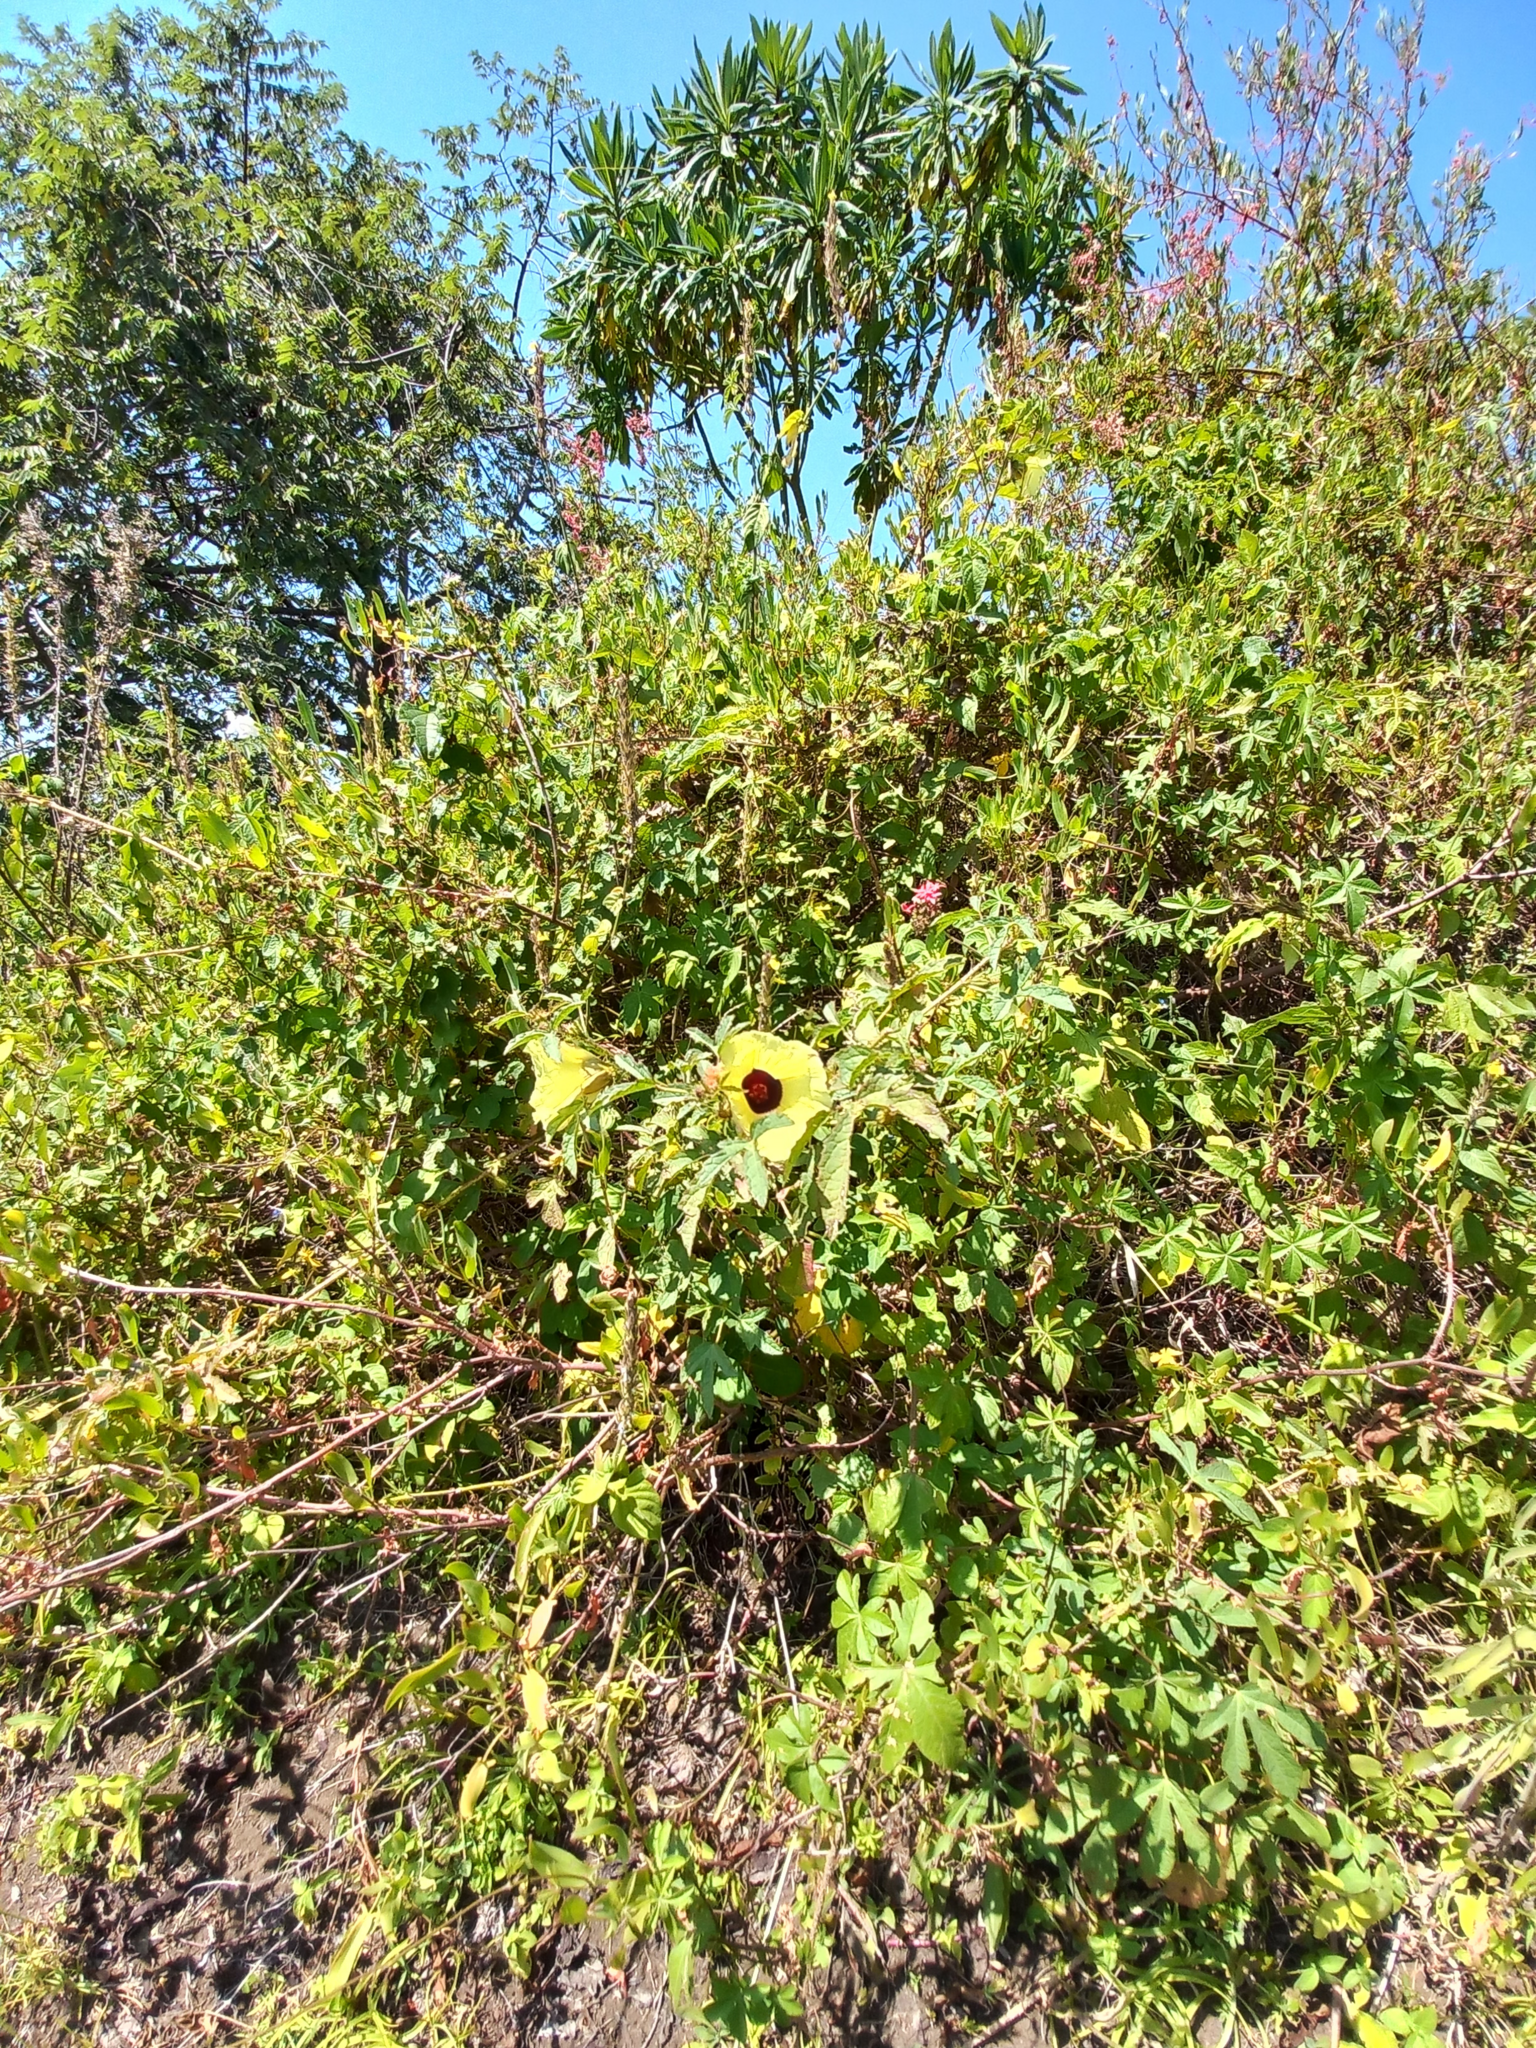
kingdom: Plantae
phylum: Tracheophyta
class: Magnoliopsida
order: Malvales
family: Malvaceae
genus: Hibiscus
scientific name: Hibiscus surattensis
